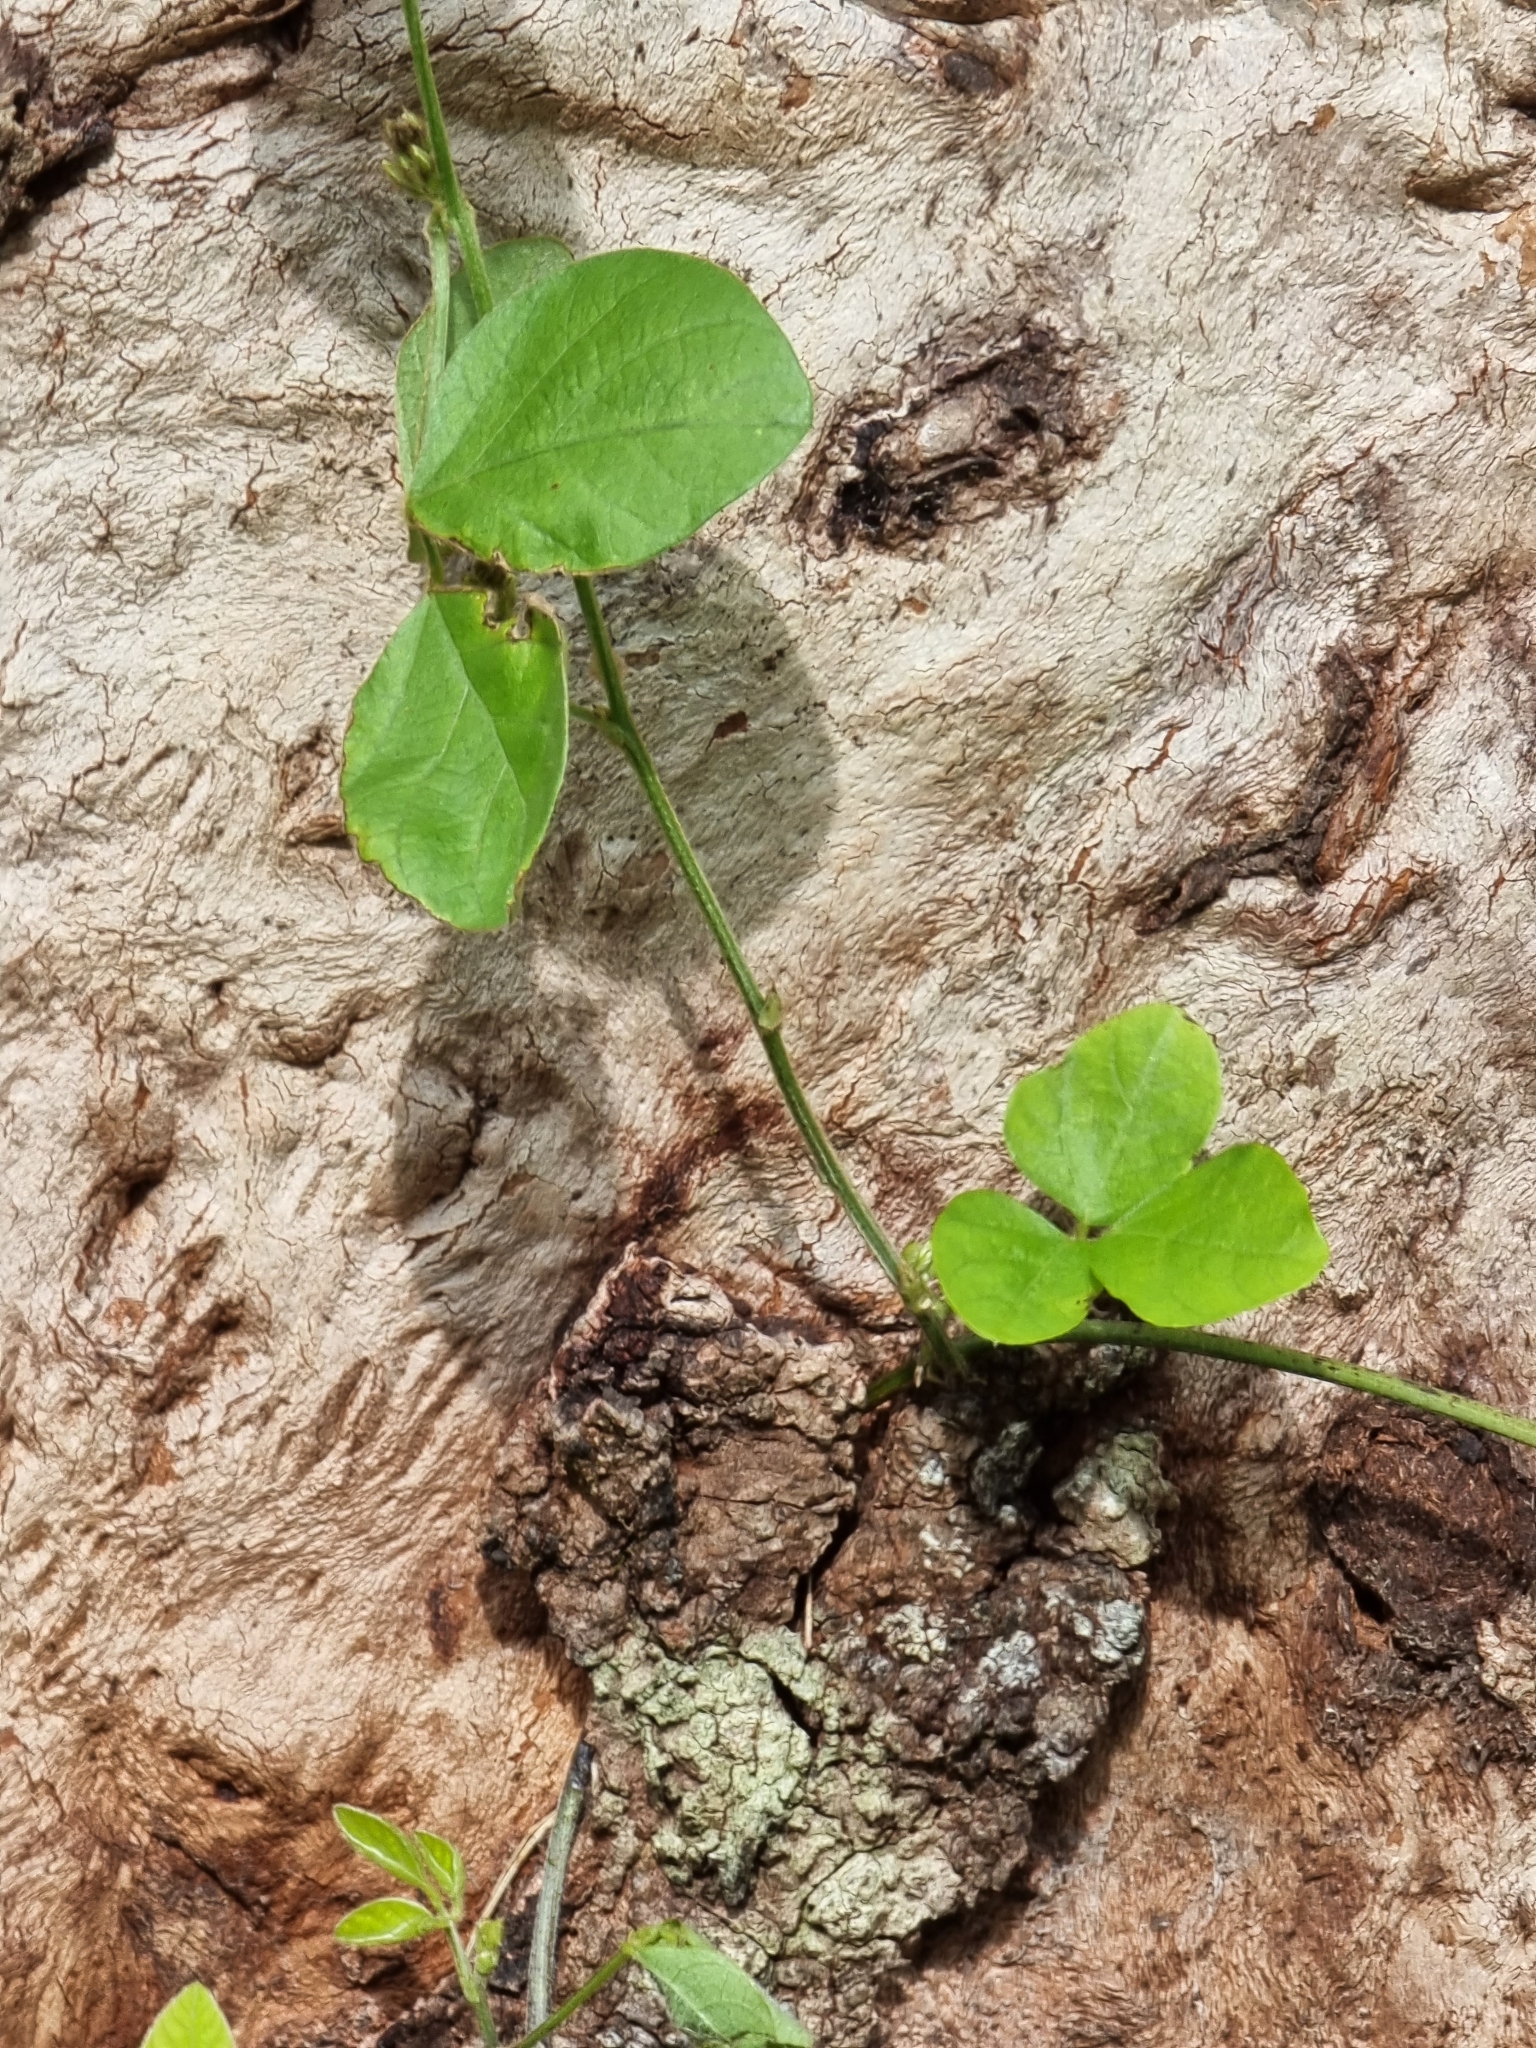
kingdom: Plantae
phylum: Tracheophyta
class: Magnoliopsida
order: Fabales
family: Fabaceae
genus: Neonotonia
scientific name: Neonotonia wightii
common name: Perennial soybean
